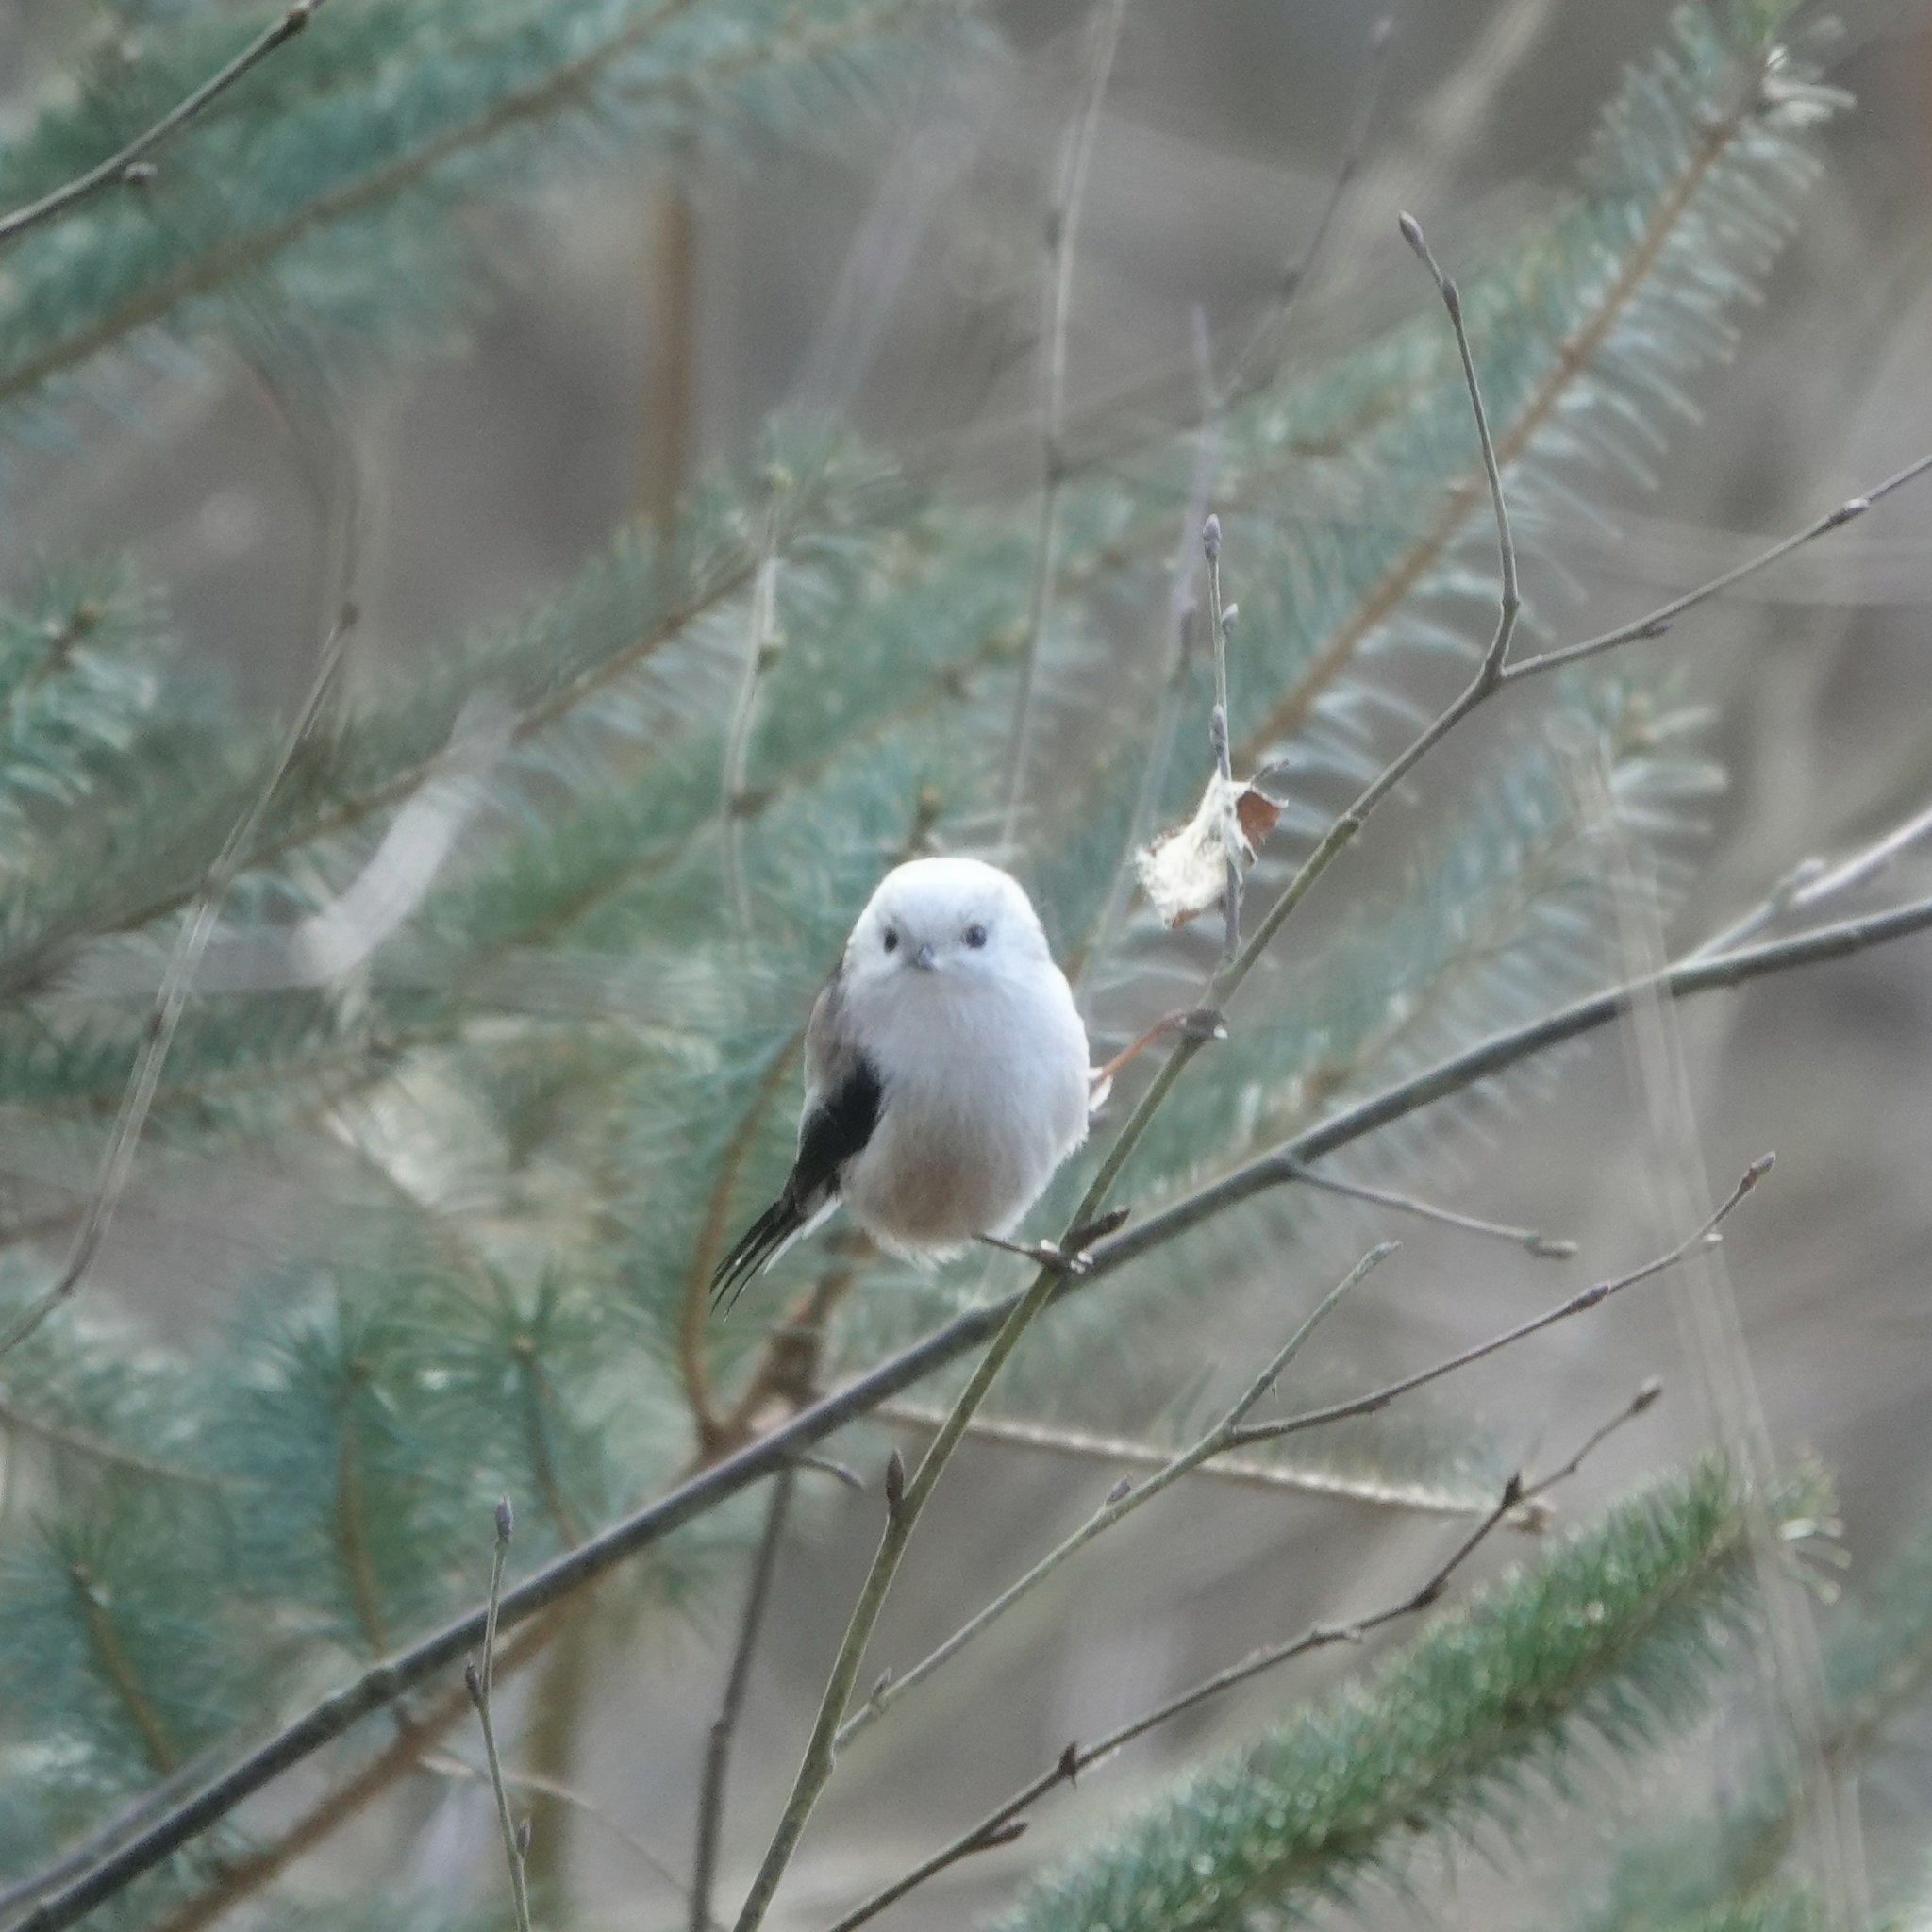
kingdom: Animalia
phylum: Chordata
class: Aves
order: Passeriformes
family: Aegithalidae
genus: Aegithalos
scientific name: Aegithalos caudatus
